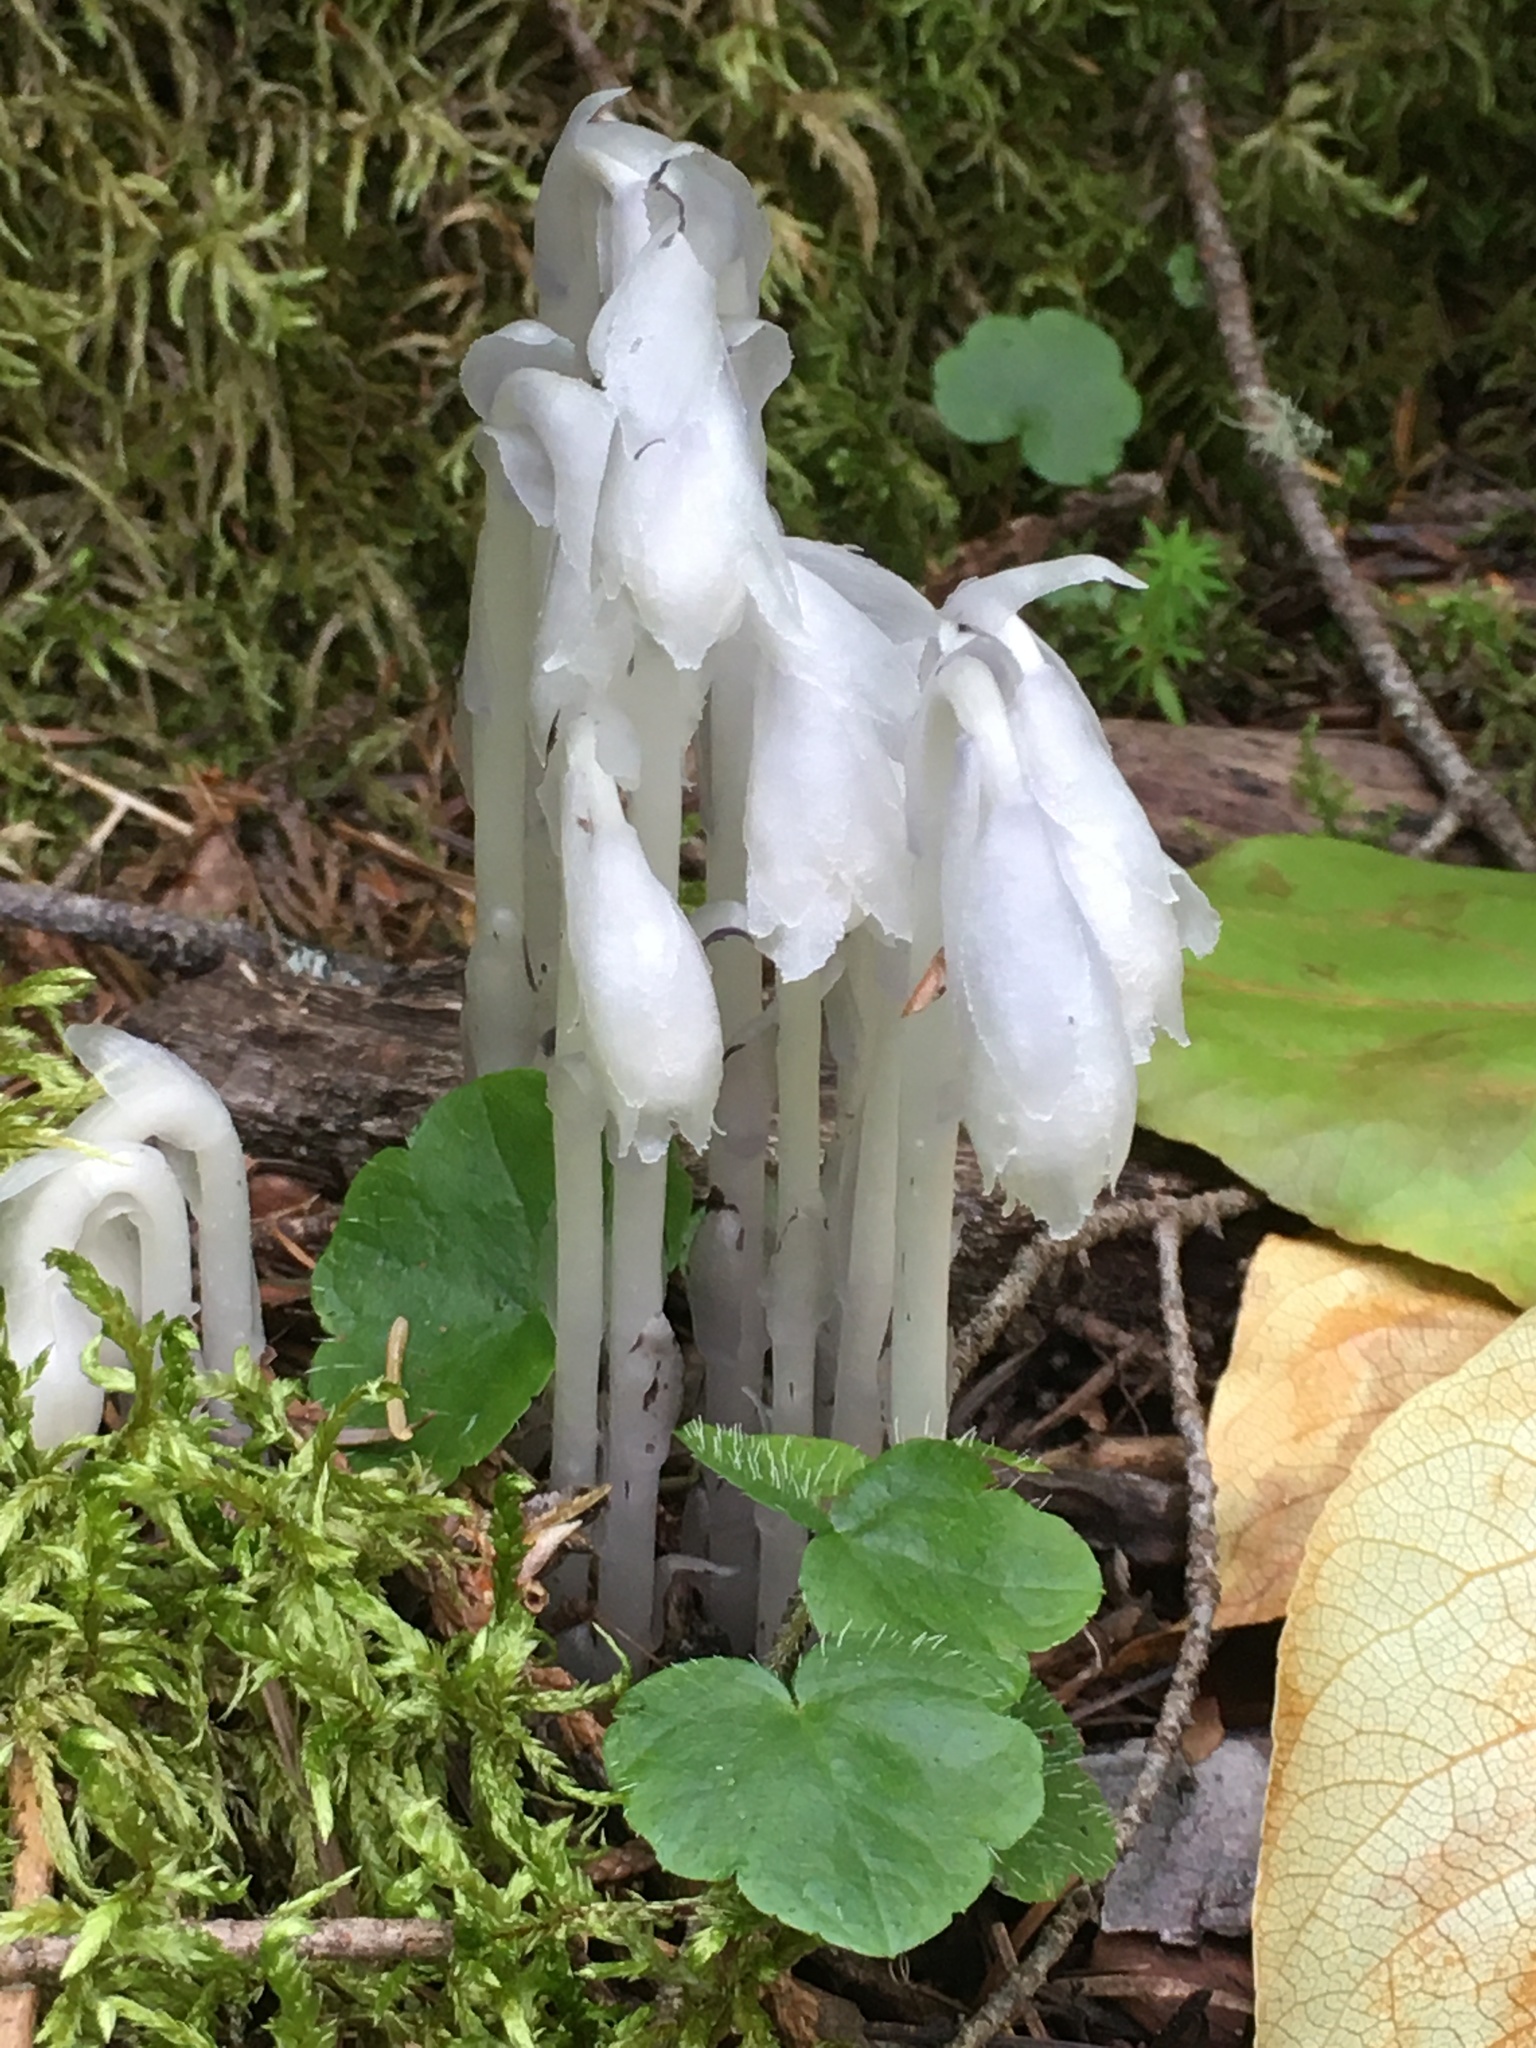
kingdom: Plantae
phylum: Tracheophyta
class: Magnoliopsida
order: Ericales
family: Ericaceae
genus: Monotropa
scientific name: Monotropa uniflora
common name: Convulsion root
